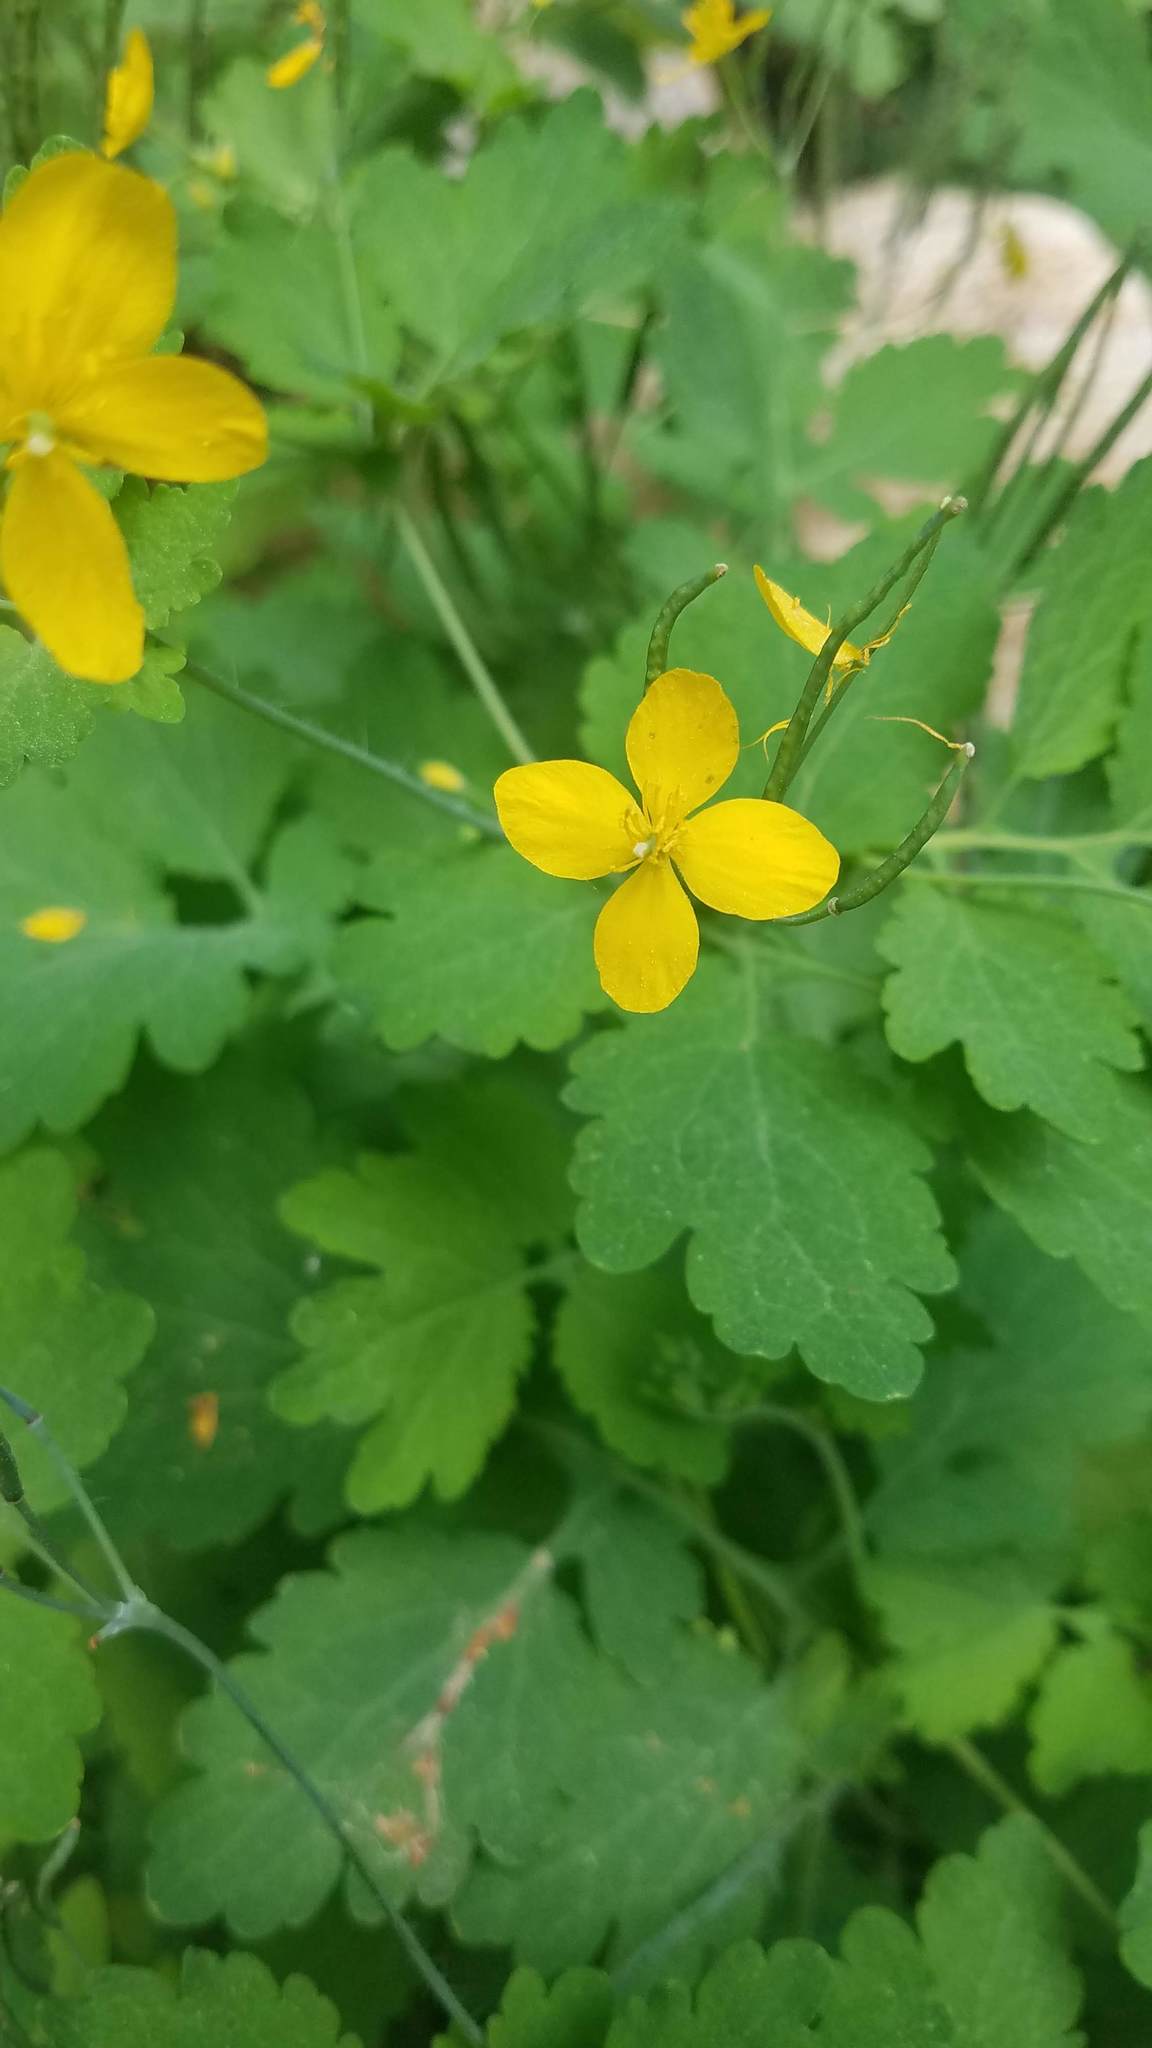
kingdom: Plantae
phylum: Tracheophyta
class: Magnoliopsida
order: Ranunculales
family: Papaveraceae
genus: Chelidonium
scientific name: Chelidonium majus
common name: Greater celandine
